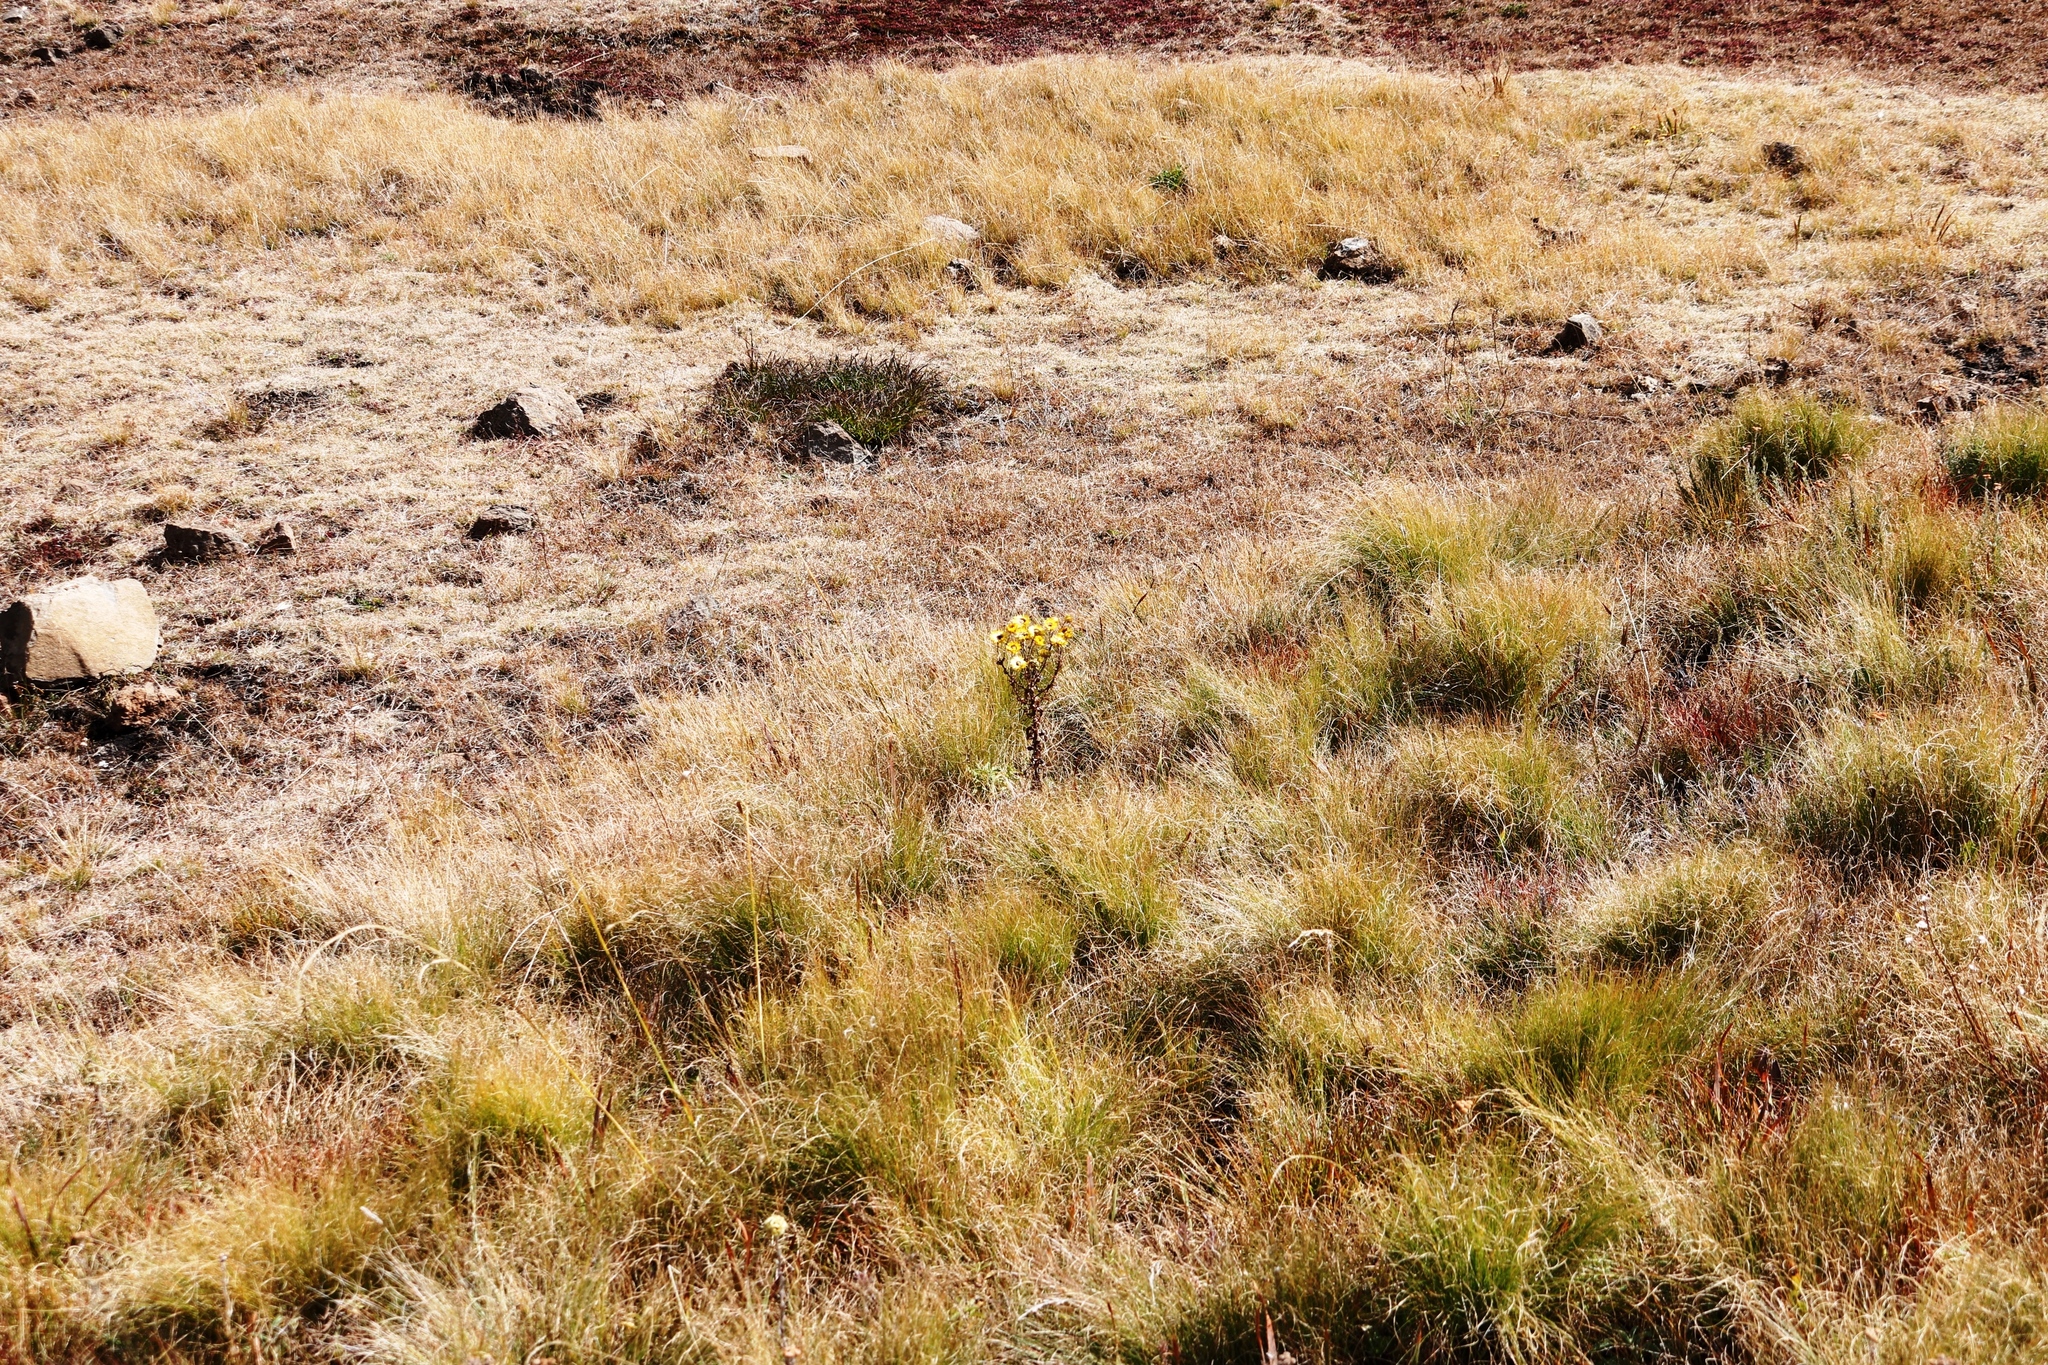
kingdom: Plantae
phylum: Tracheophyta
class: Magnoliopsida
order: Asterales
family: Asteraceae
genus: Helichrysum
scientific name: Helichrysum cooperi
